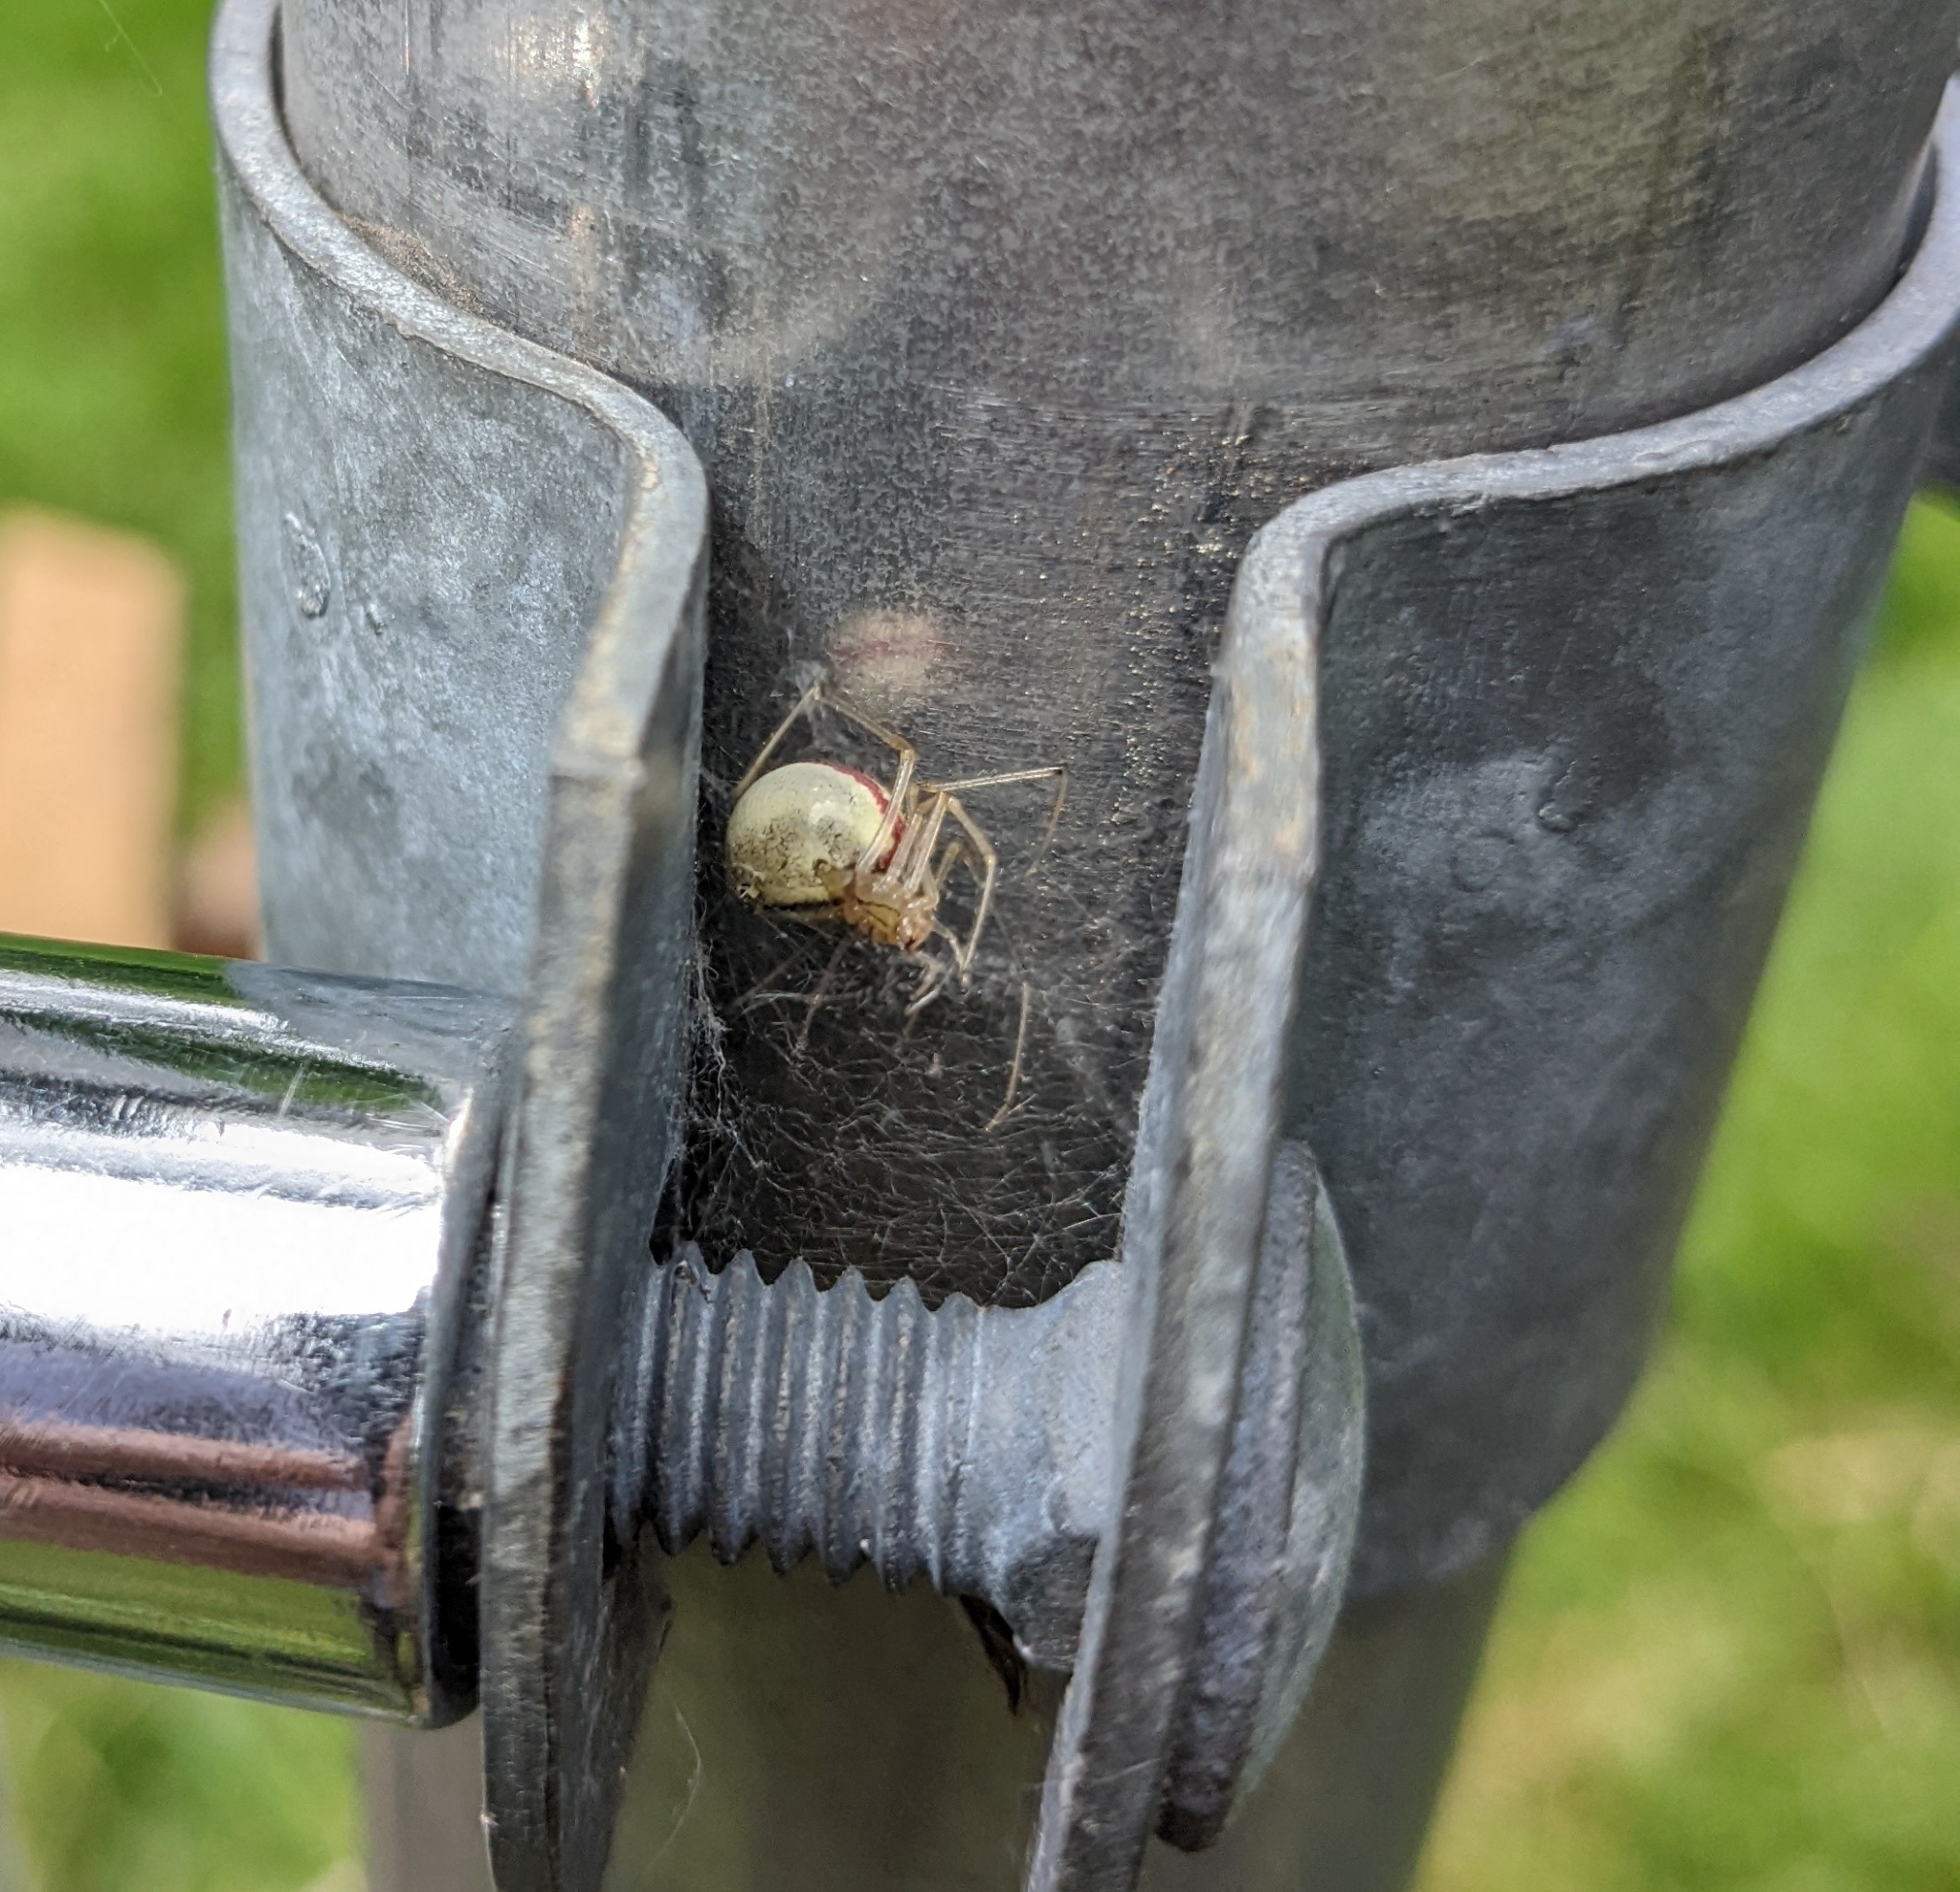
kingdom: Animalia
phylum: Arthropoda
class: Arachnida
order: Araneae
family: Theridiidae
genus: Enoplognatha
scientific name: Enoplognatha ovata
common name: Common candy-striped spider
